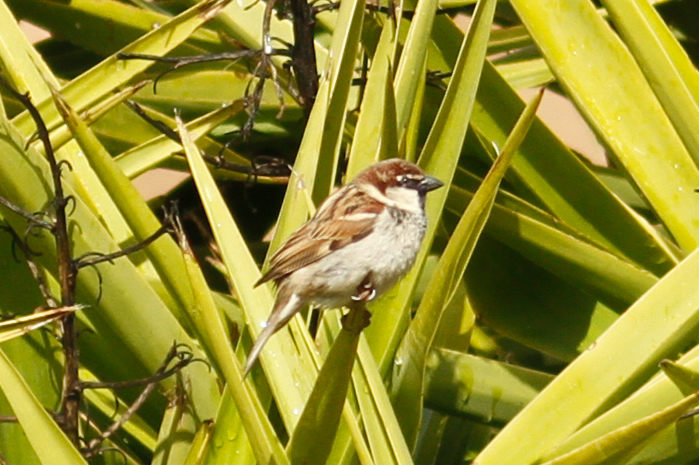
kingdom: Animalia
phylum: Chordata
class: Aves
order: Passeriformes
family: Passeridae
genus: Passer
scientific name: Passer italiae
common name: Italian sparrow
